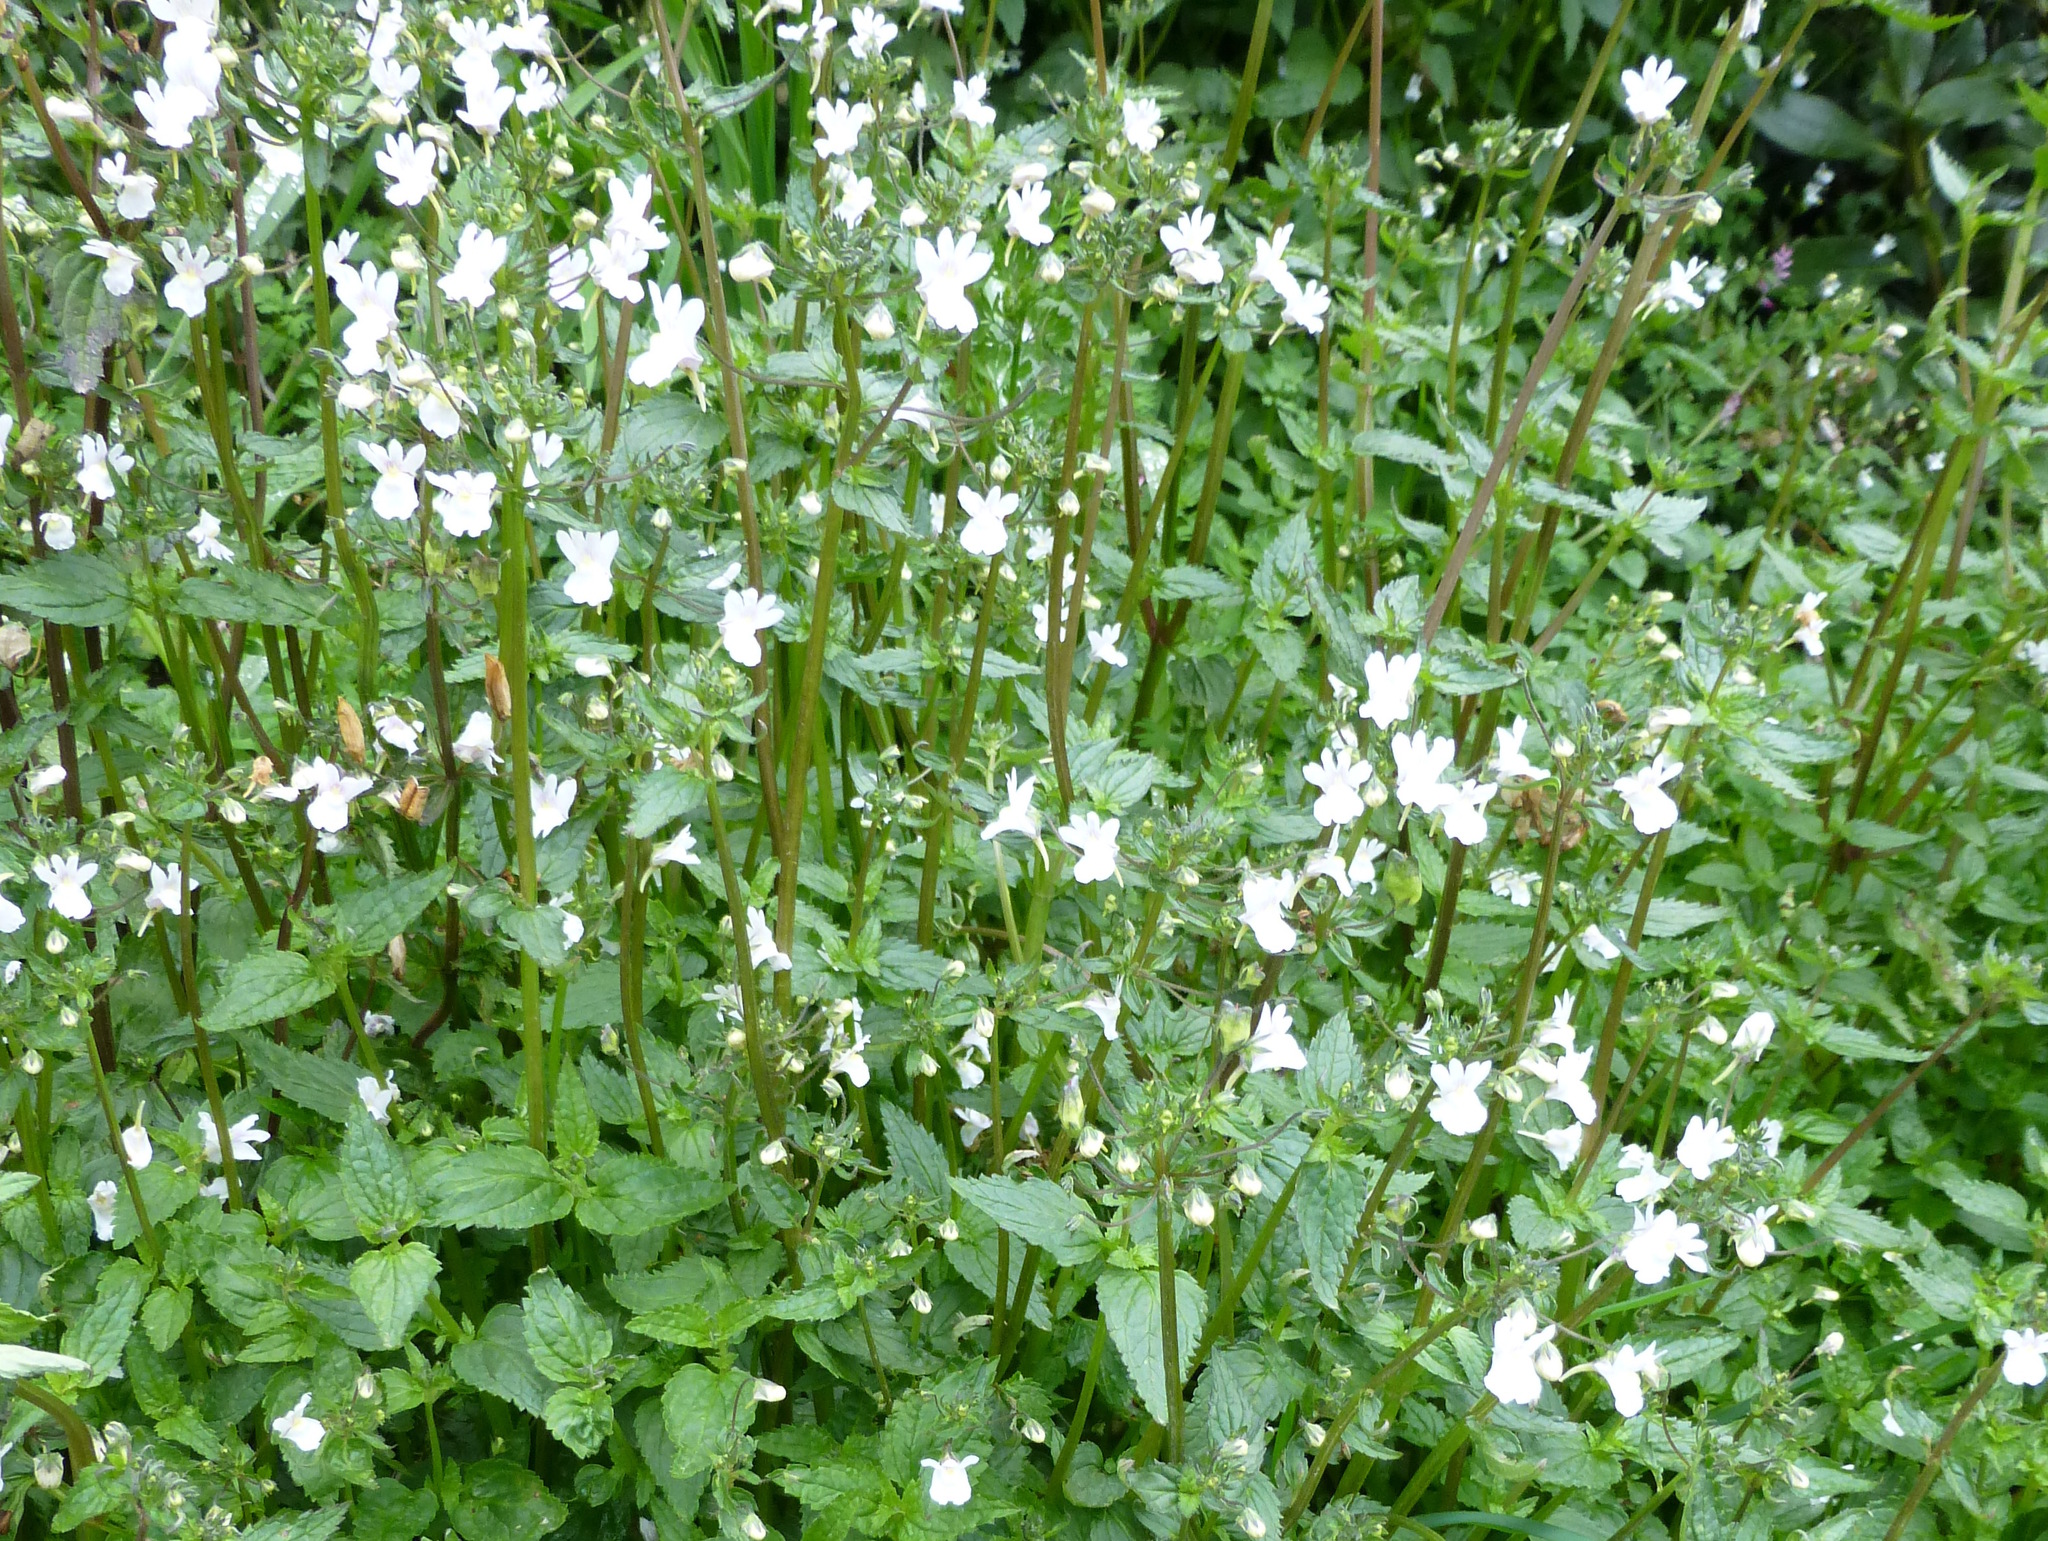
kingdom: Plantae
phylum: Tracheophyta
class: Magnoliopsida
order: Lamiales
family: Scrophulariaceae
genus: Nemesia
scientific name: Nemesia floribunda
